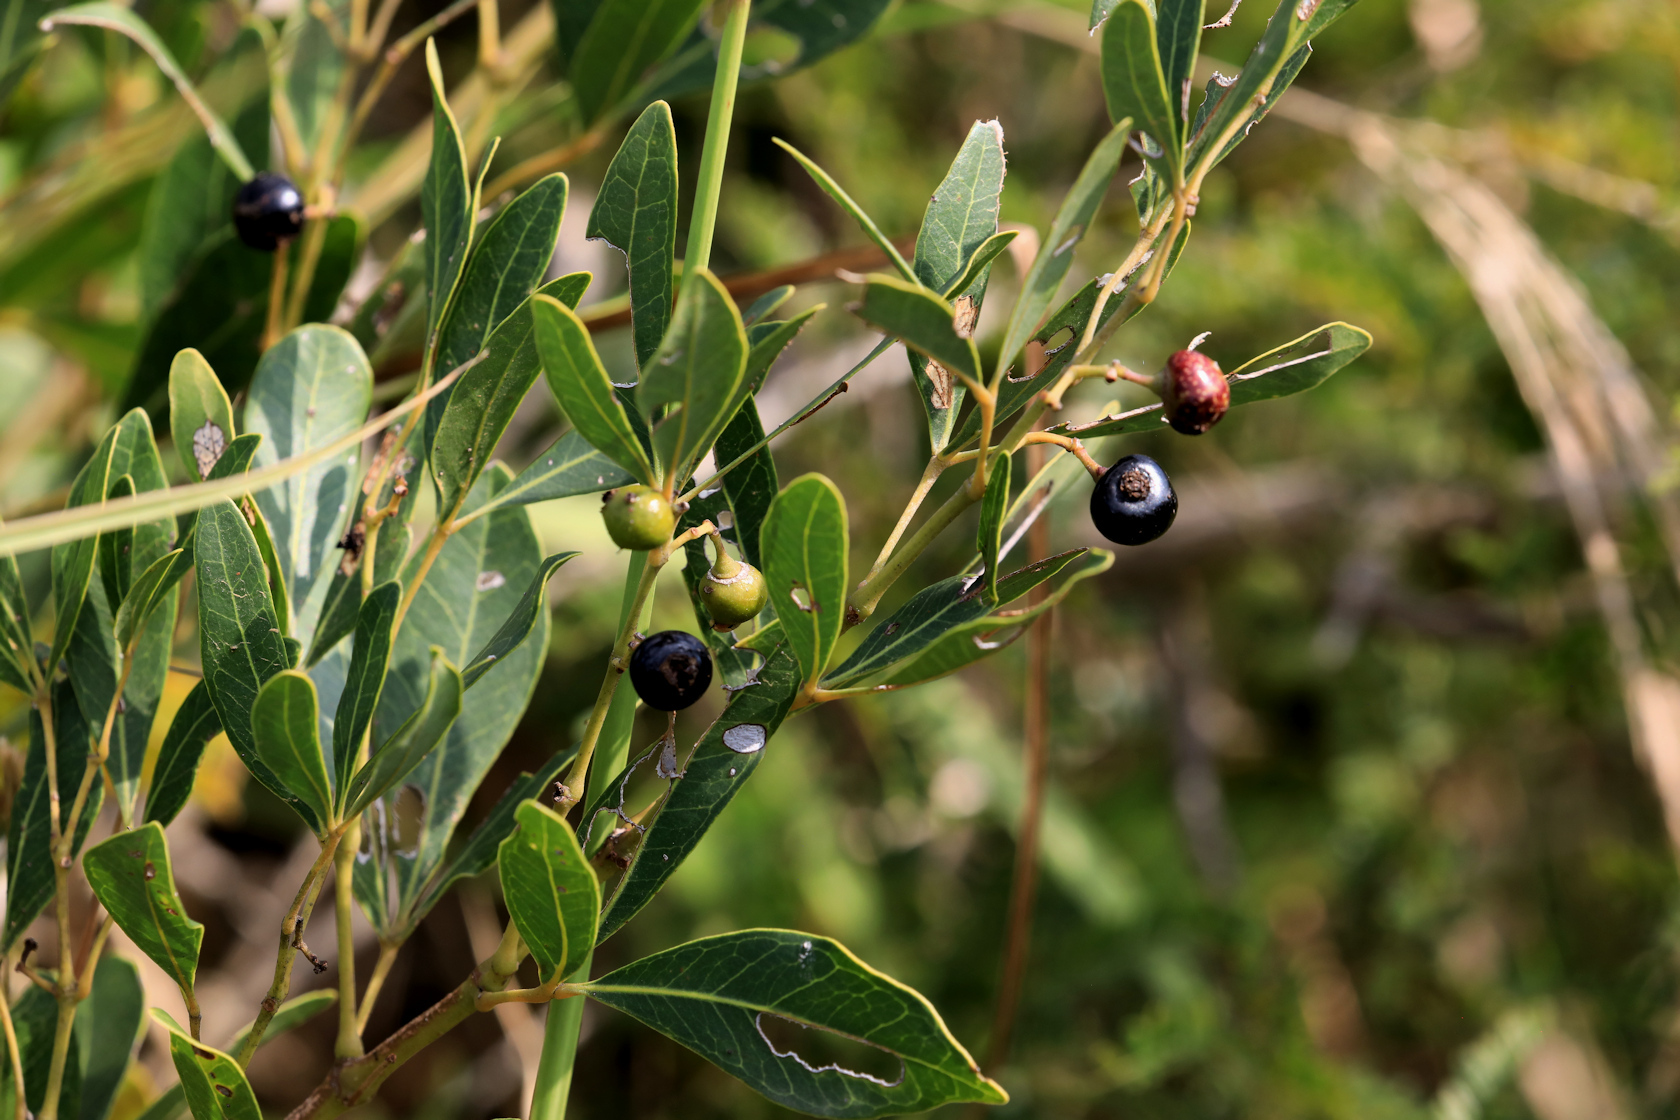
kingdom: Plantae
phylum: Tracheophyta
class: Magnoliopsida
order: Vitales
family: Vitaceae
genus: Rhoicissus
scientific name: Rhoicissus digitata
